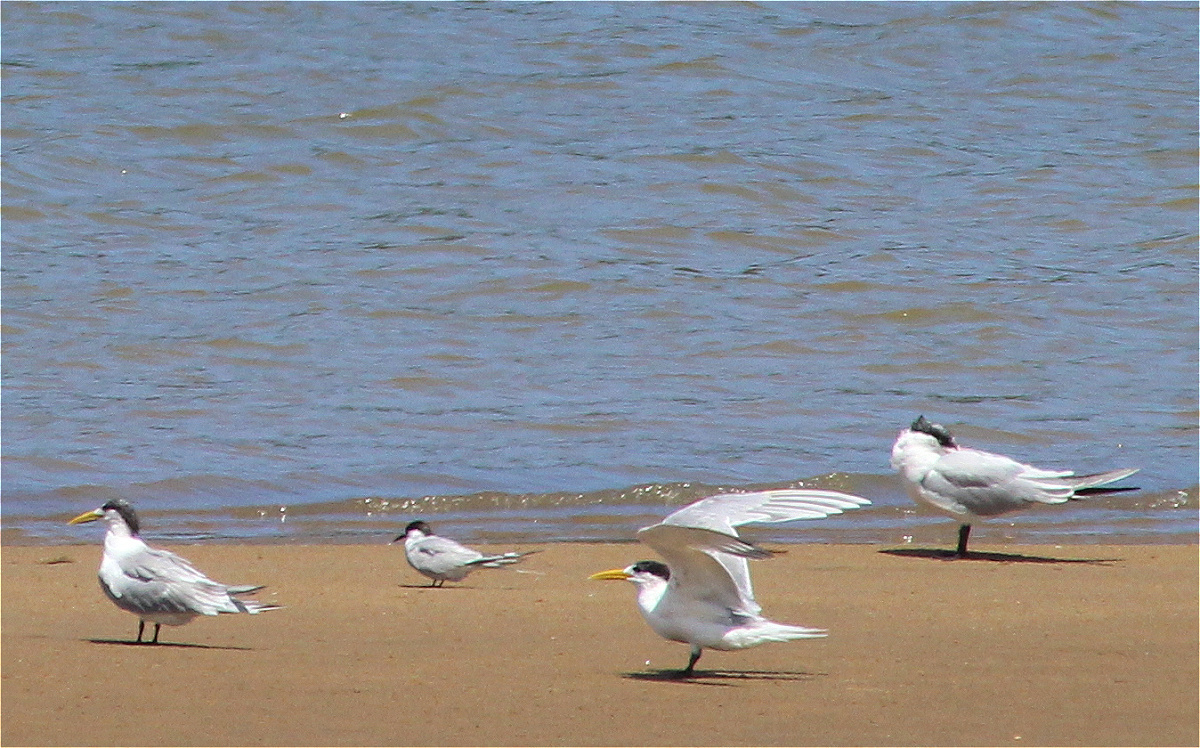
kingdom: Animalia
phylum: Chordata
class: Aves
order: Charadriiformes
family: Laridae
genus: Sterna
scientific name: Sterna dougallii
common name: Roseate tern
